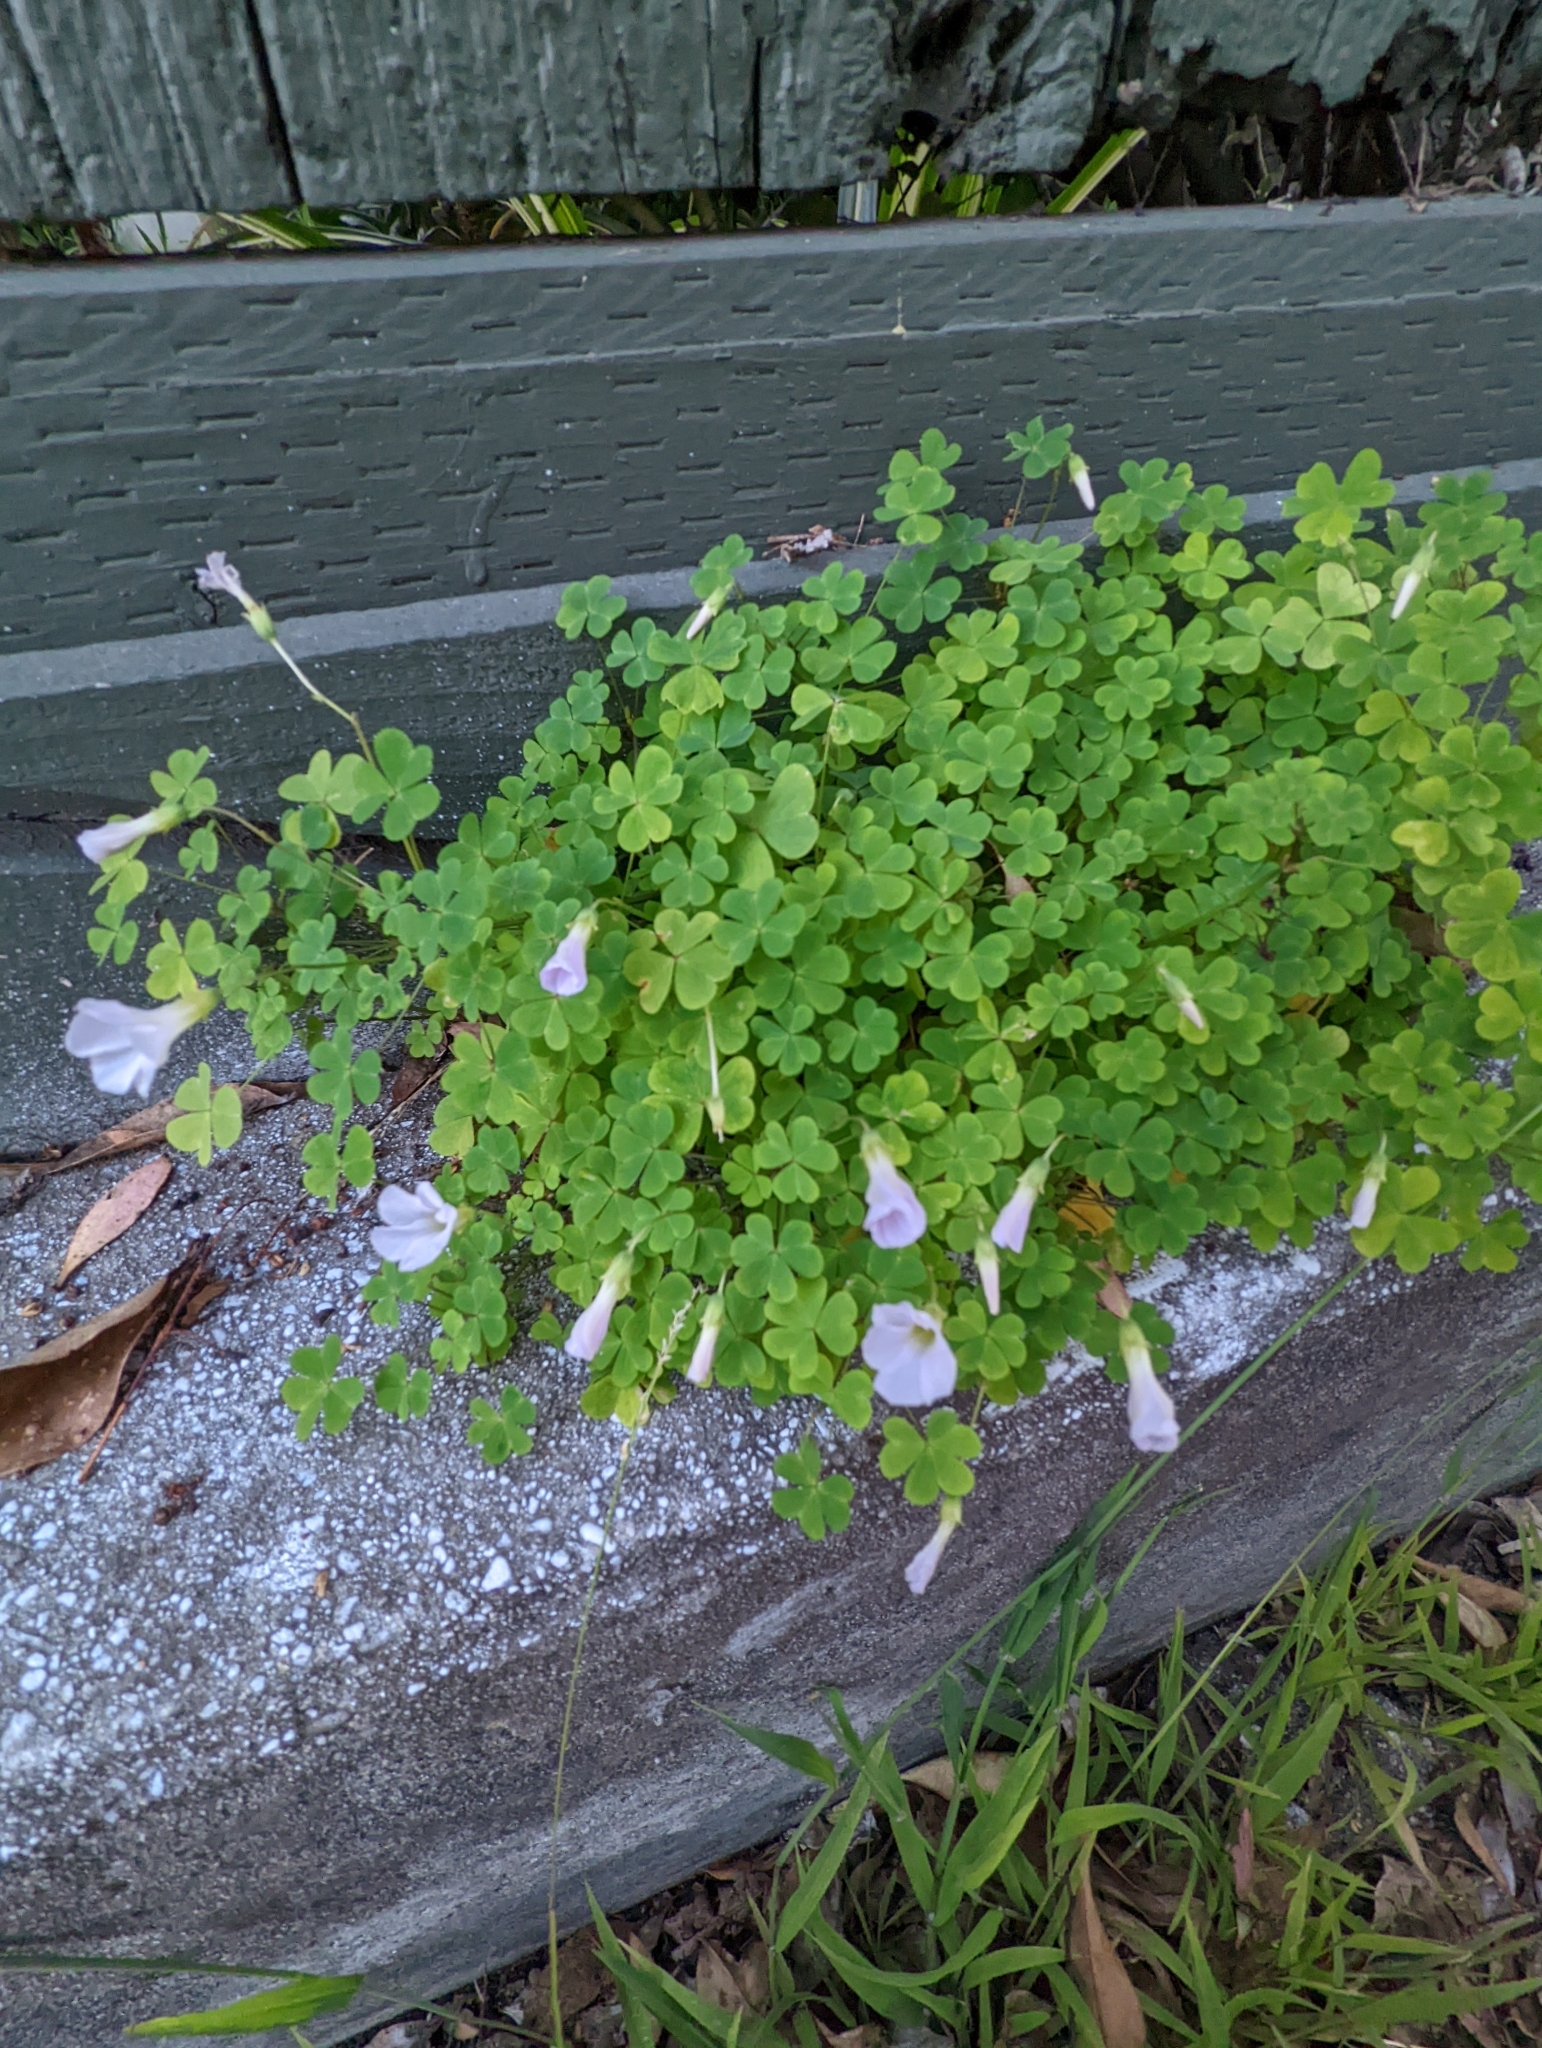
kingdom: Plantae
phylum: Tracheophyta
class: Magnoliopsida
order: Oxalidales
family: Oxalidaceae
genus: Oxalis
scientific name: Oxalis incarnata
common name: Pale pink-sorrel
